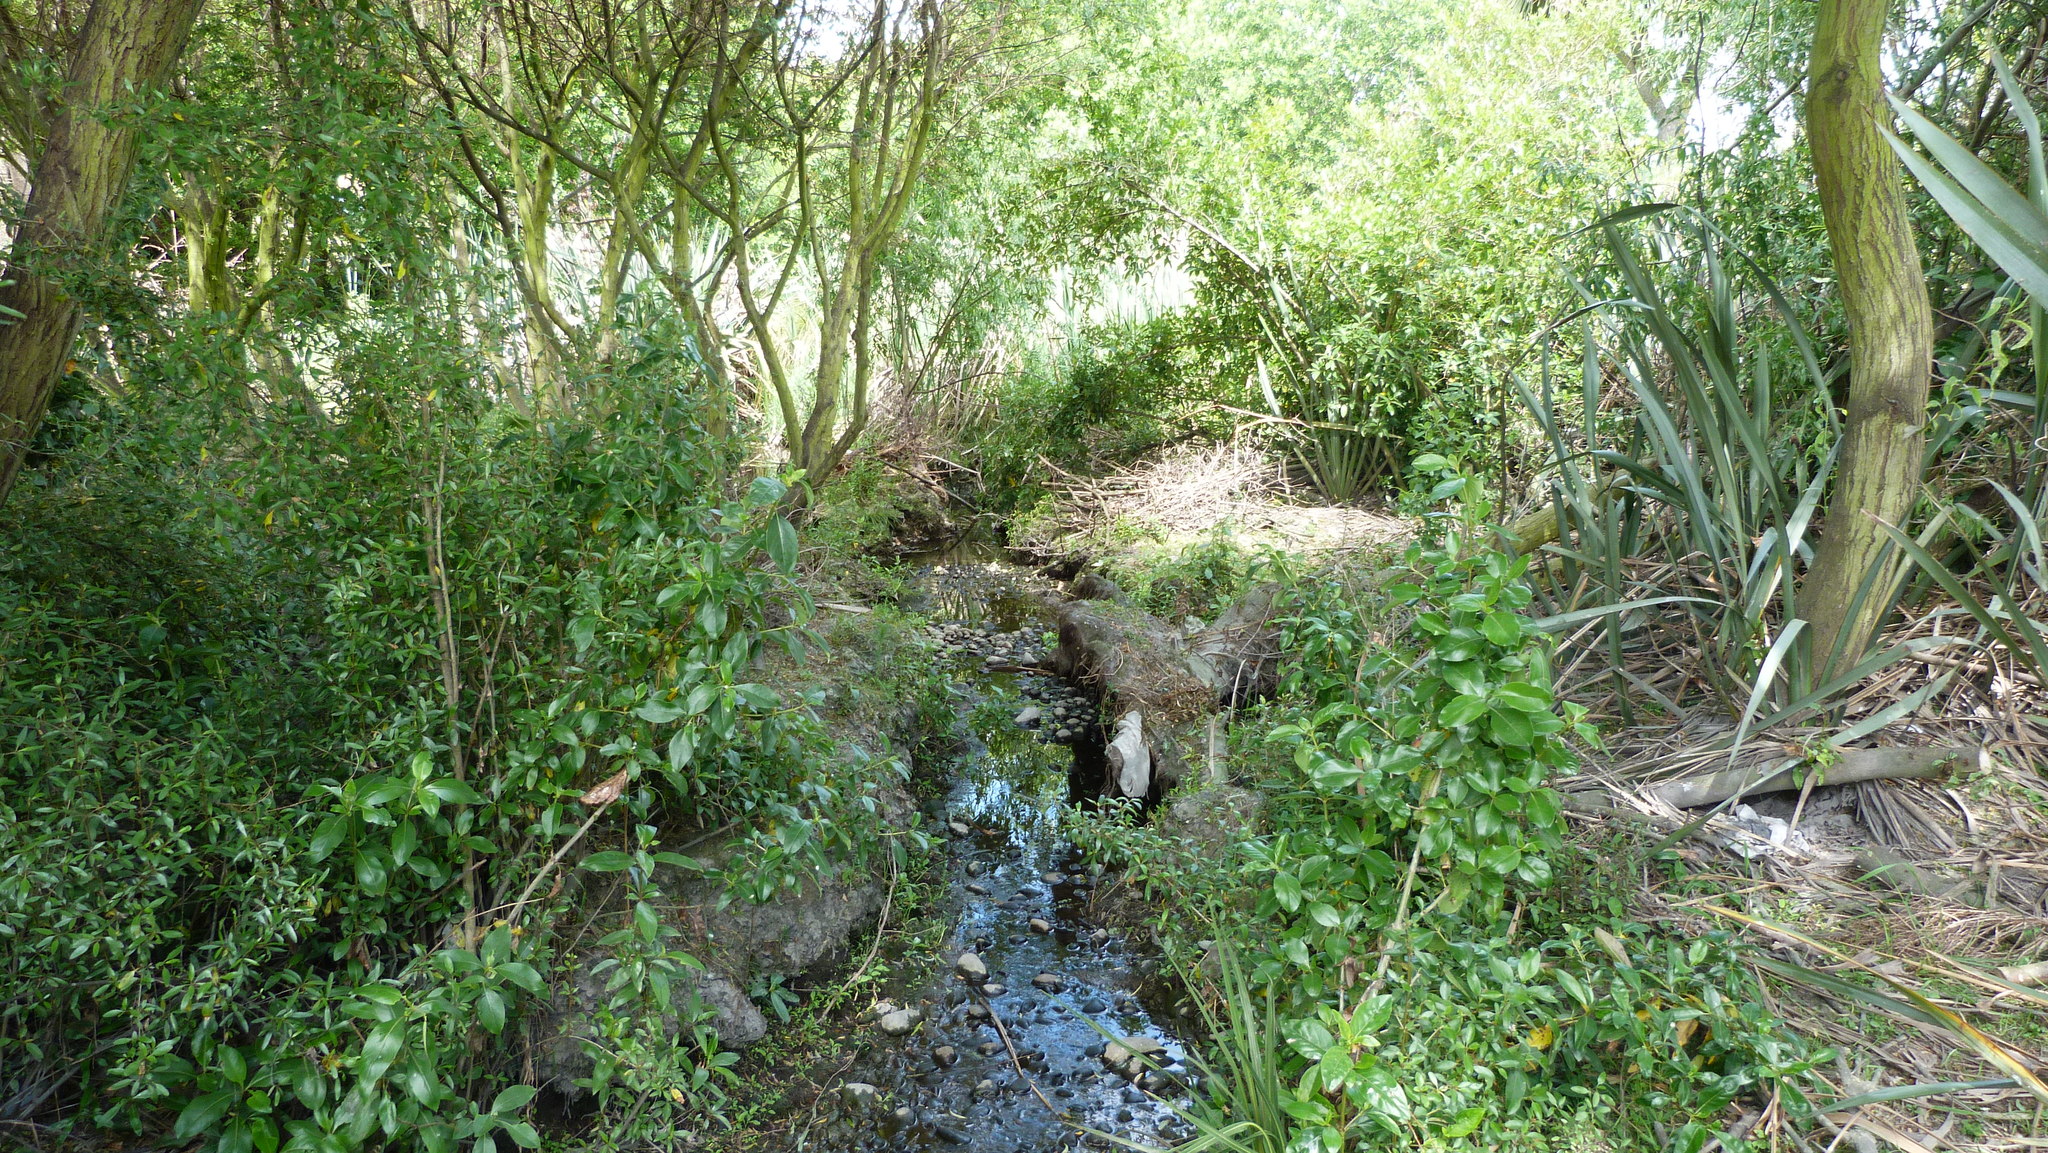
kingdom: Plantae
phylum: Tracheophyta
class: Magnoliopsida
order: Gentianales
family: Rubiaceae
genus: Coprosma
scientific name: Coprosma robusta
